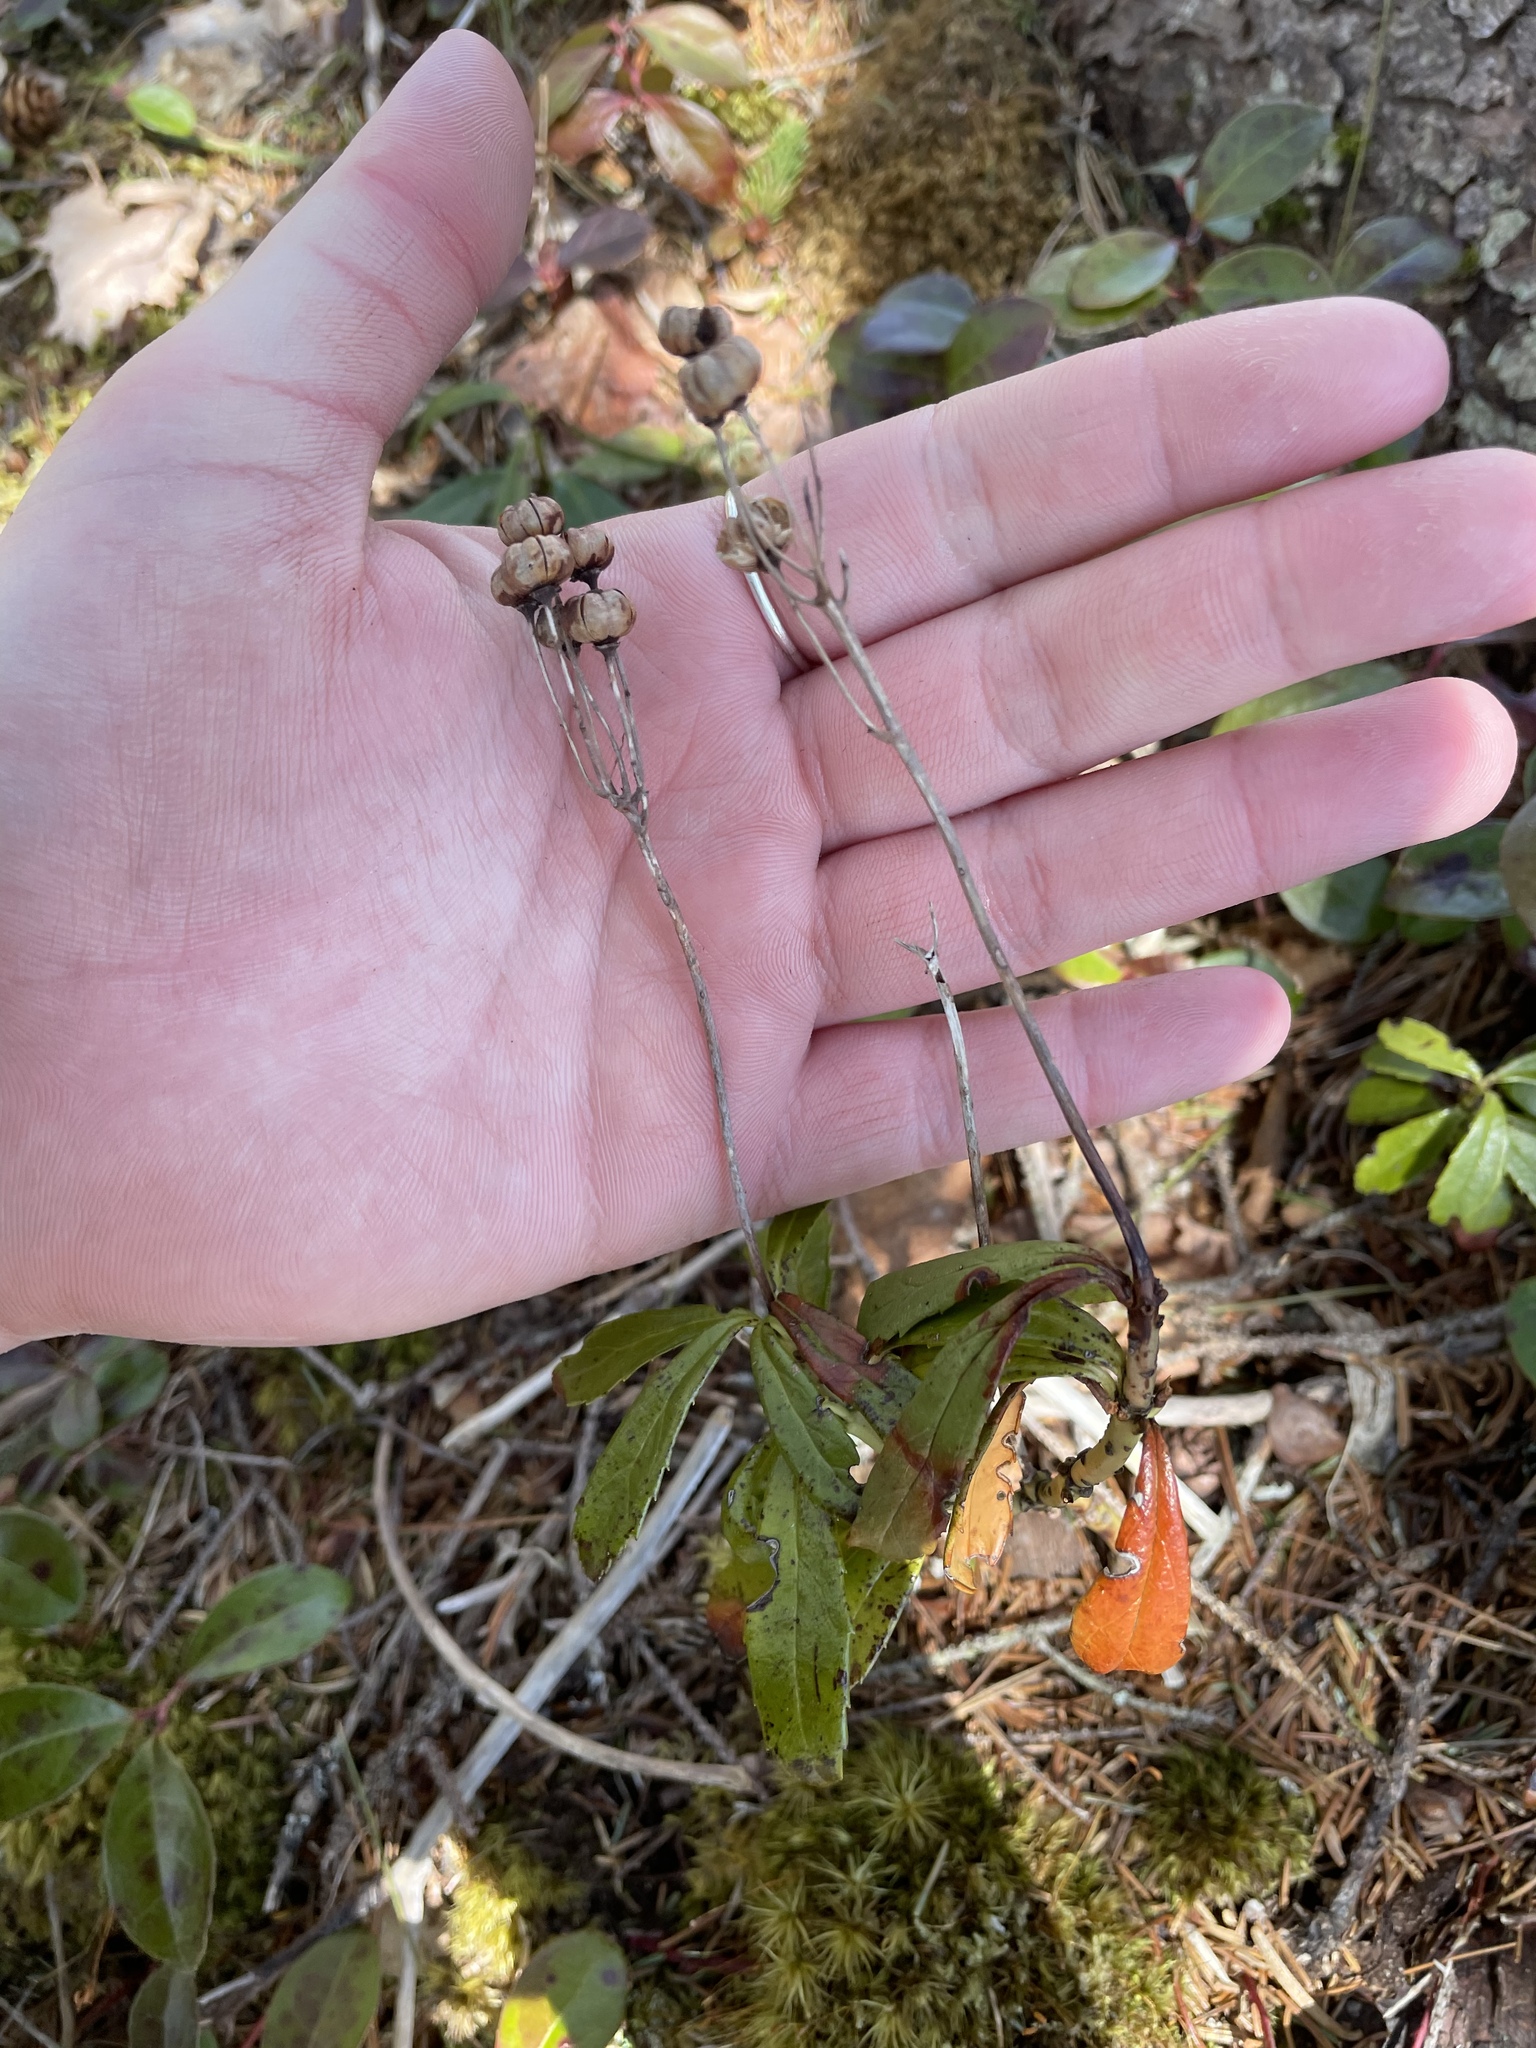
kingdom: Plantae
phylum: Tracheophyta
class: Magnoliopsida
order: Ericales
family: Ericaceae
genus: Chimaphila
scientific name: Chimaphila umbellata
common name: Pipsissewa
